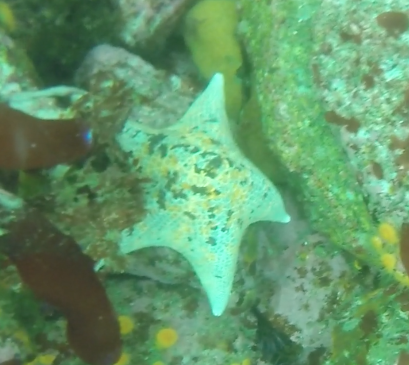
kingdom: Animalia
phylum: Echinodermata
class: Asteroidea
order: Valvatida
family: Asterinidae
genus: Patiria
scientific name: Patiria miniata
